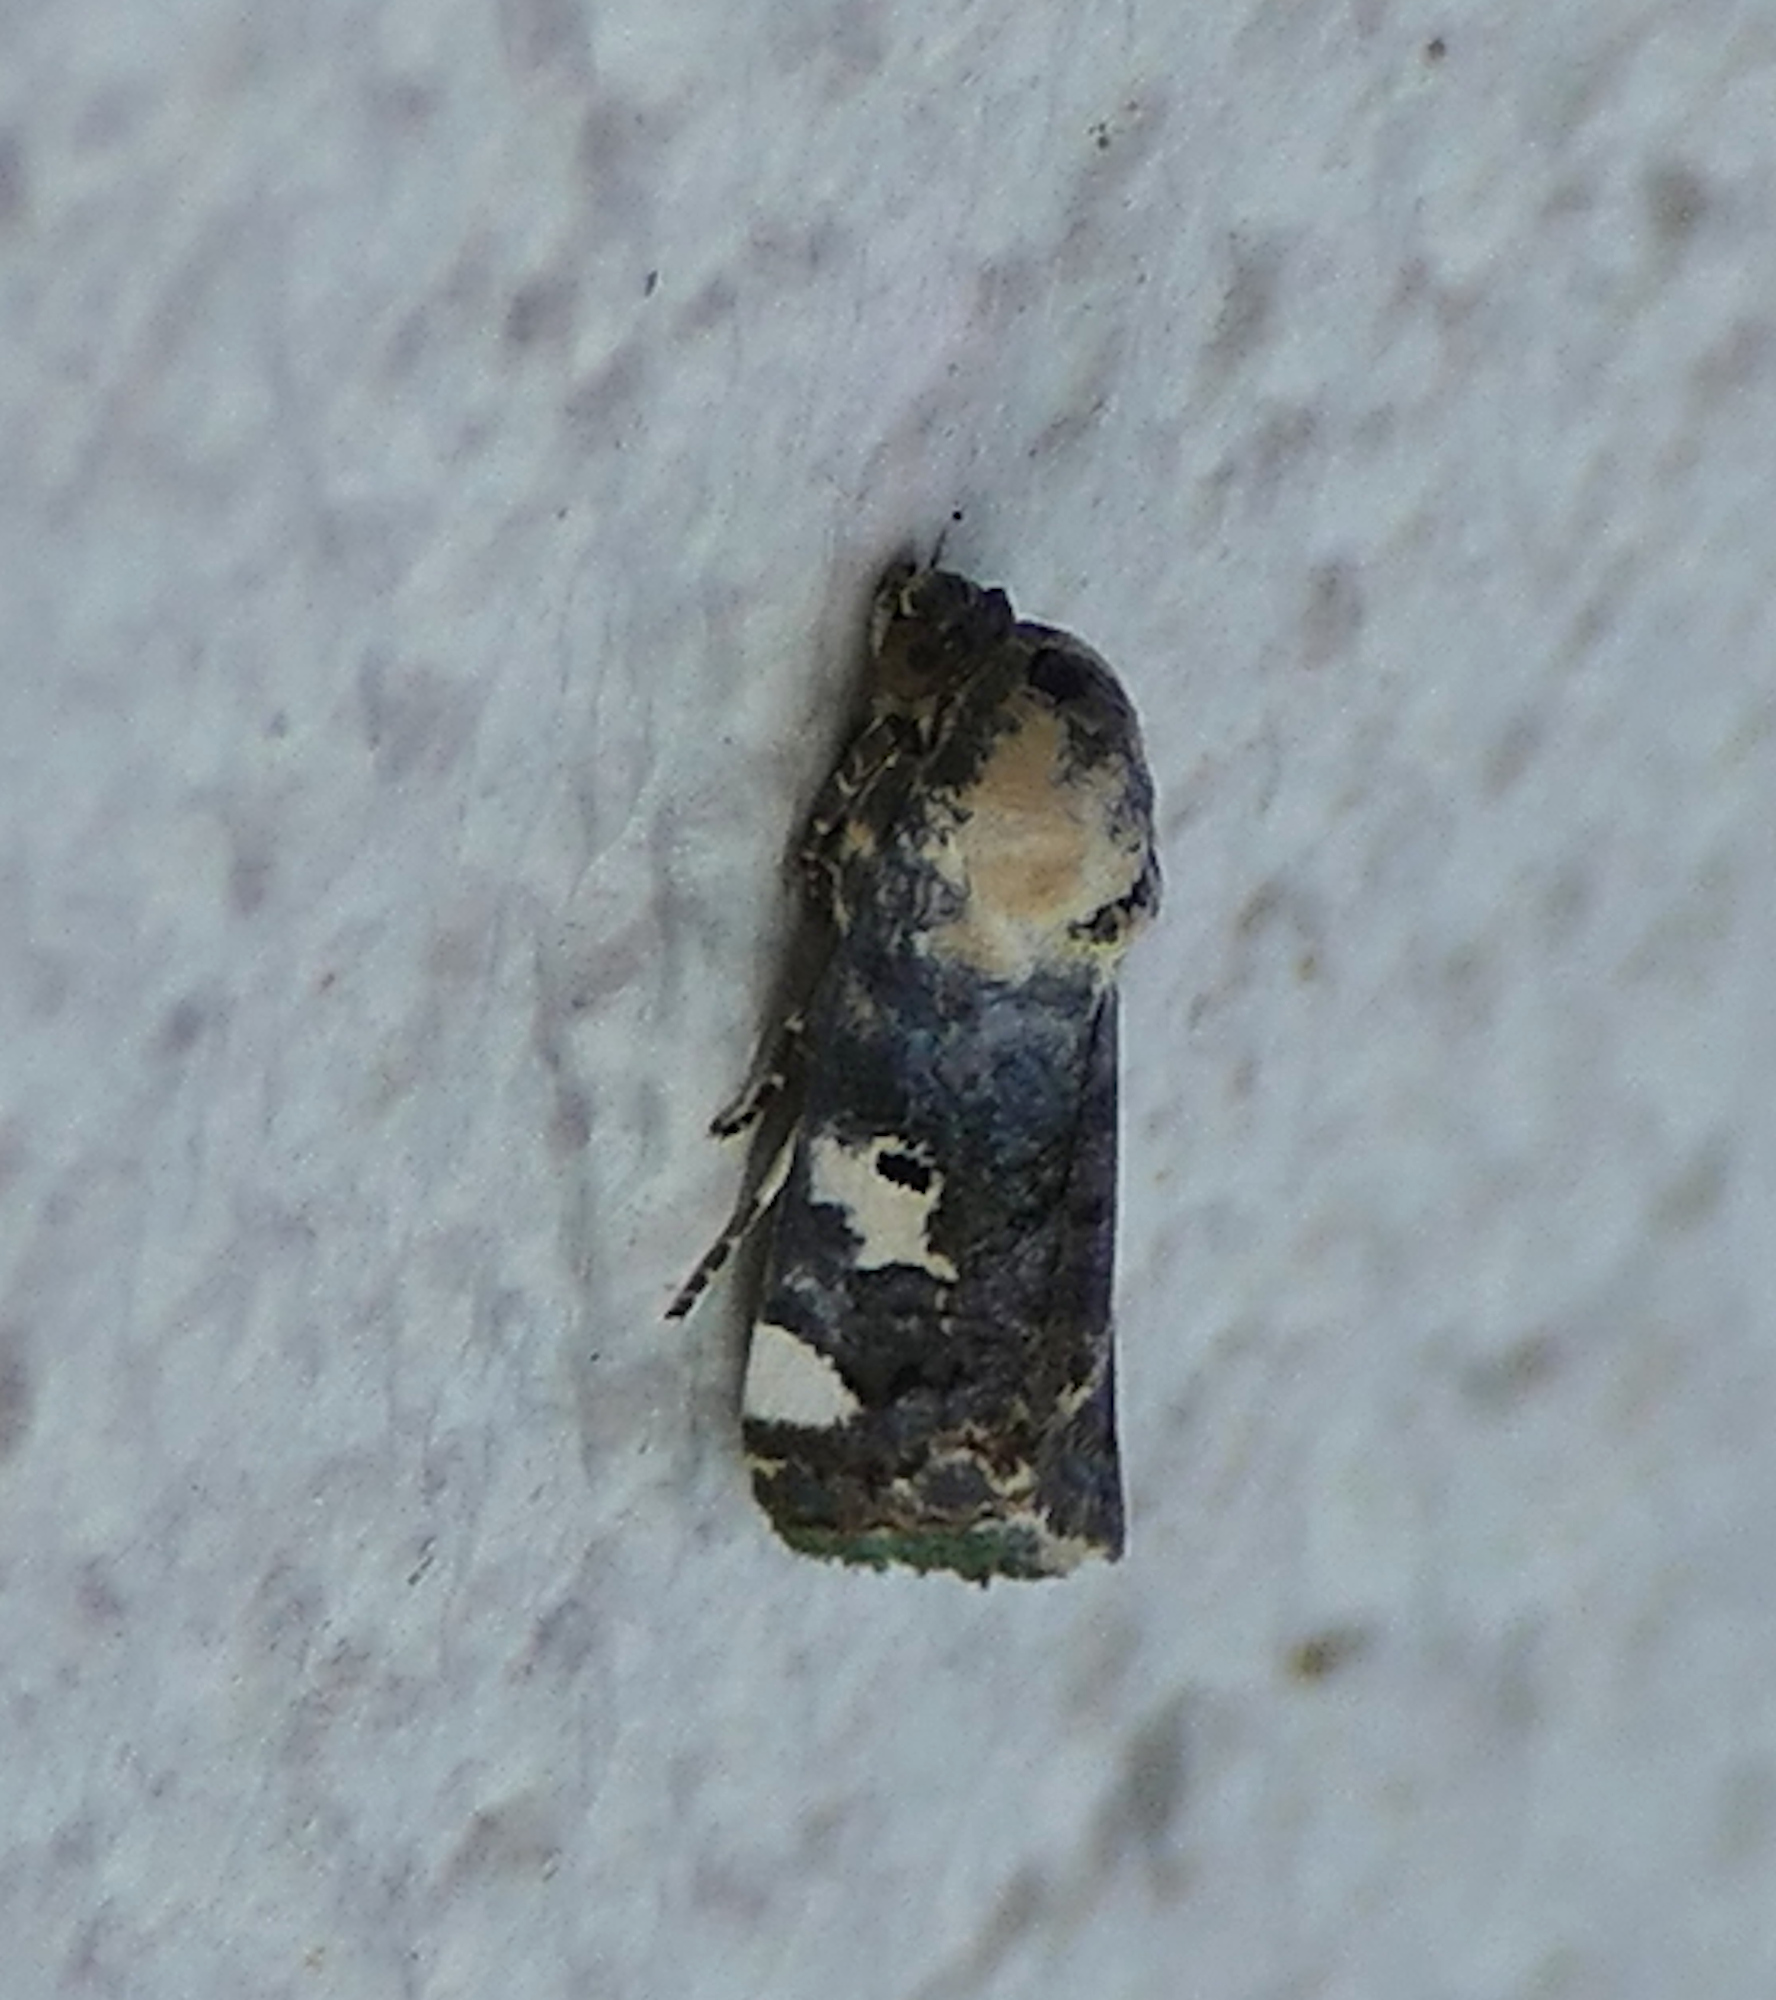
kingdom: Animalia
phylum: Arthropoda
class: Insecta
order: Lepidoptera
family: Noctuidae
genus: Acontia
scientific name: Acontia aprica
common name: Nun
